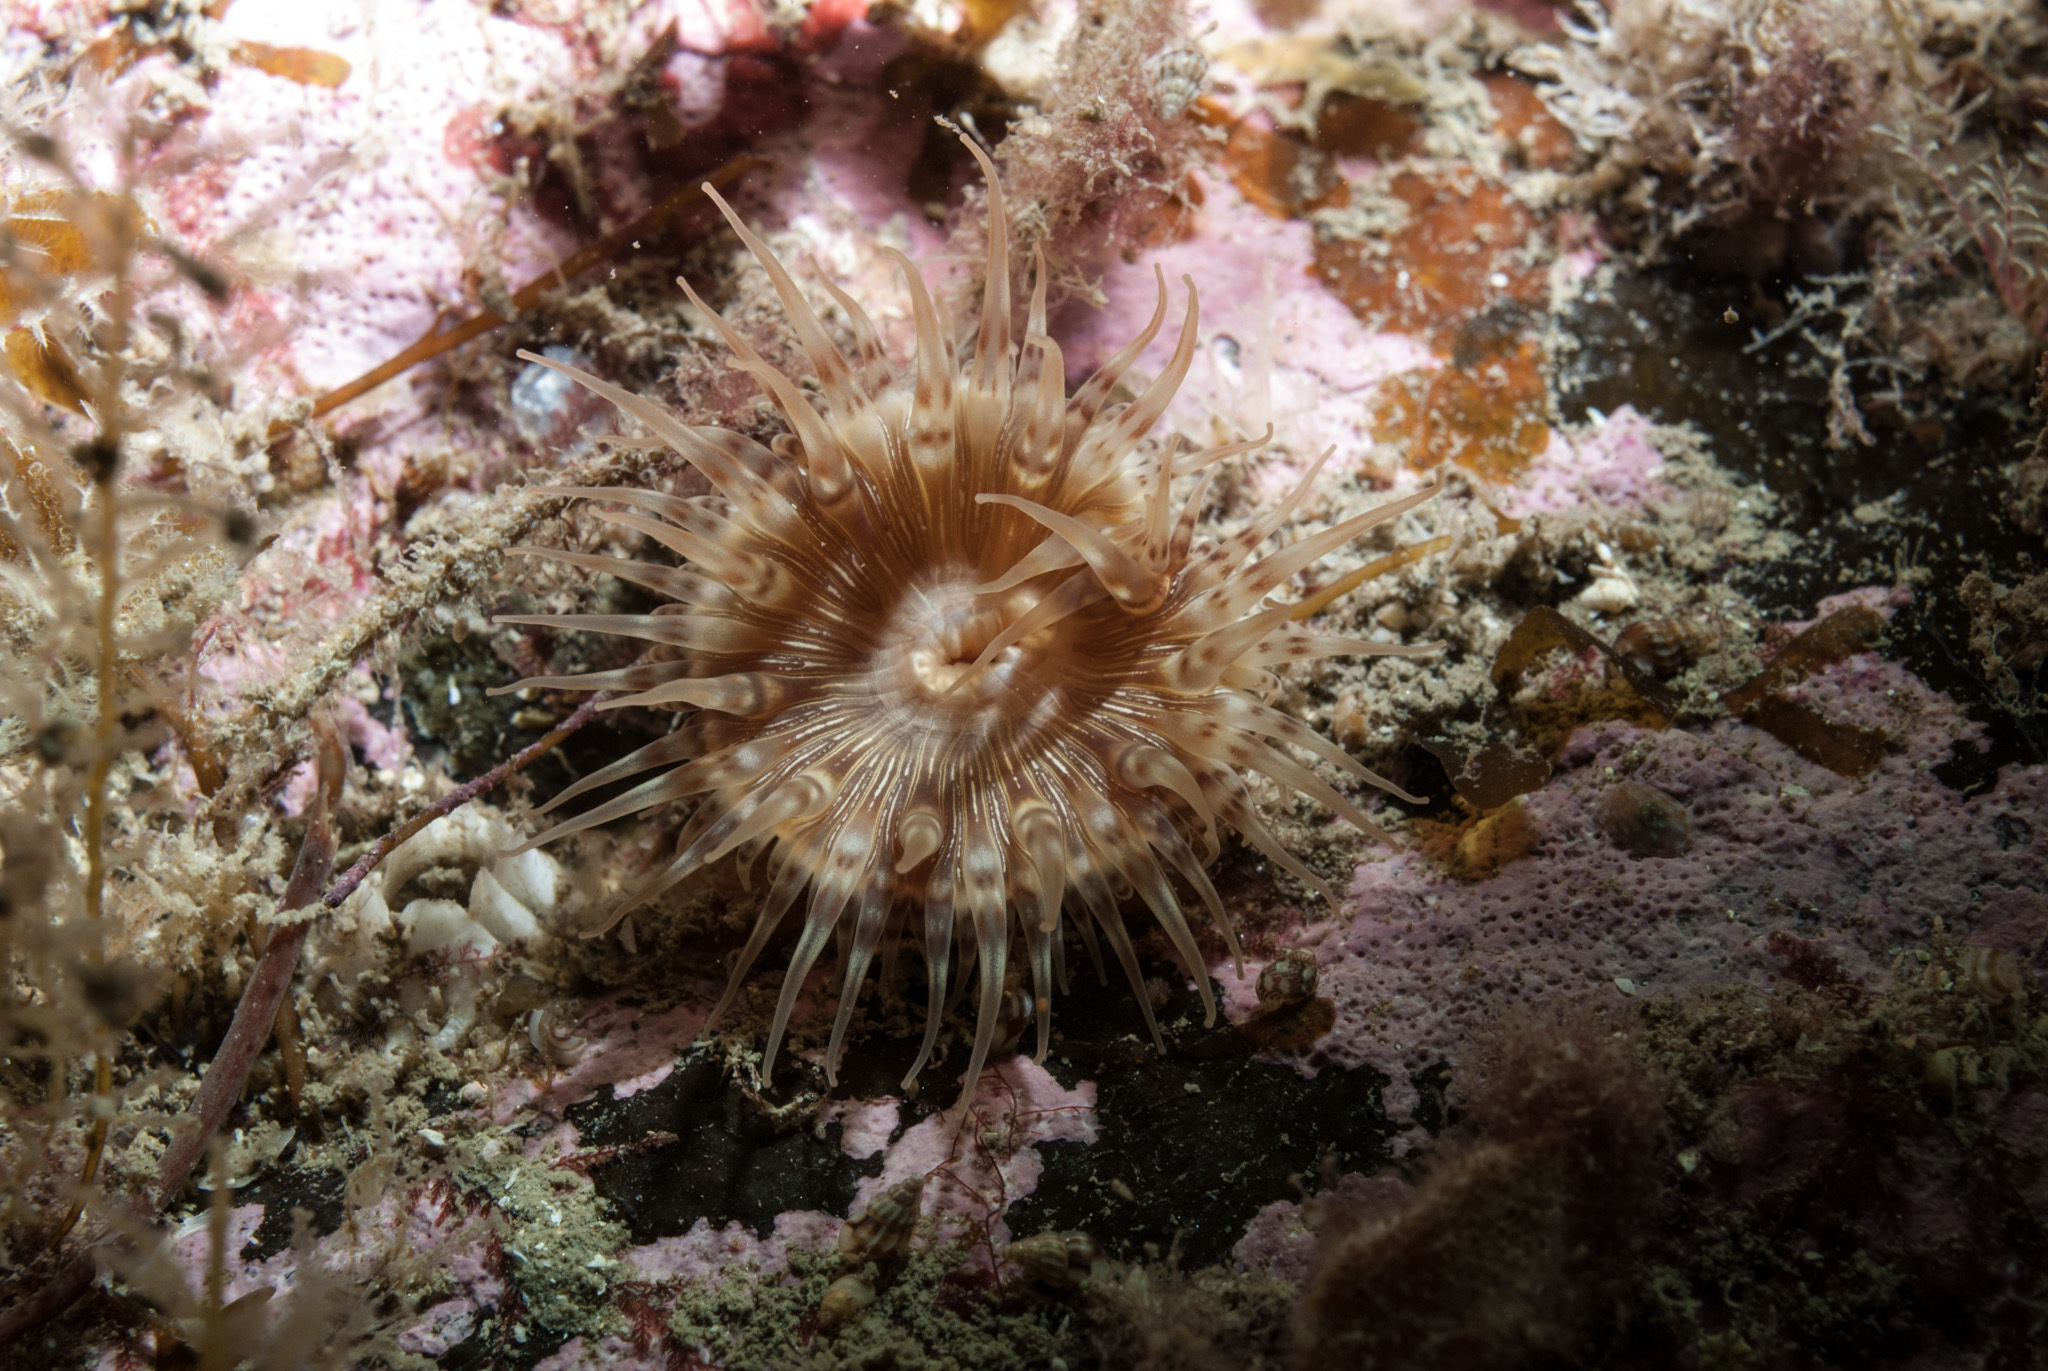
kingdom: Animalia
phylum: Cnidaria
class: Anthozoa
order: Actiniaria
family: Hormathiidae
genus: Hormathia
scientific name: Hormathia coronata
